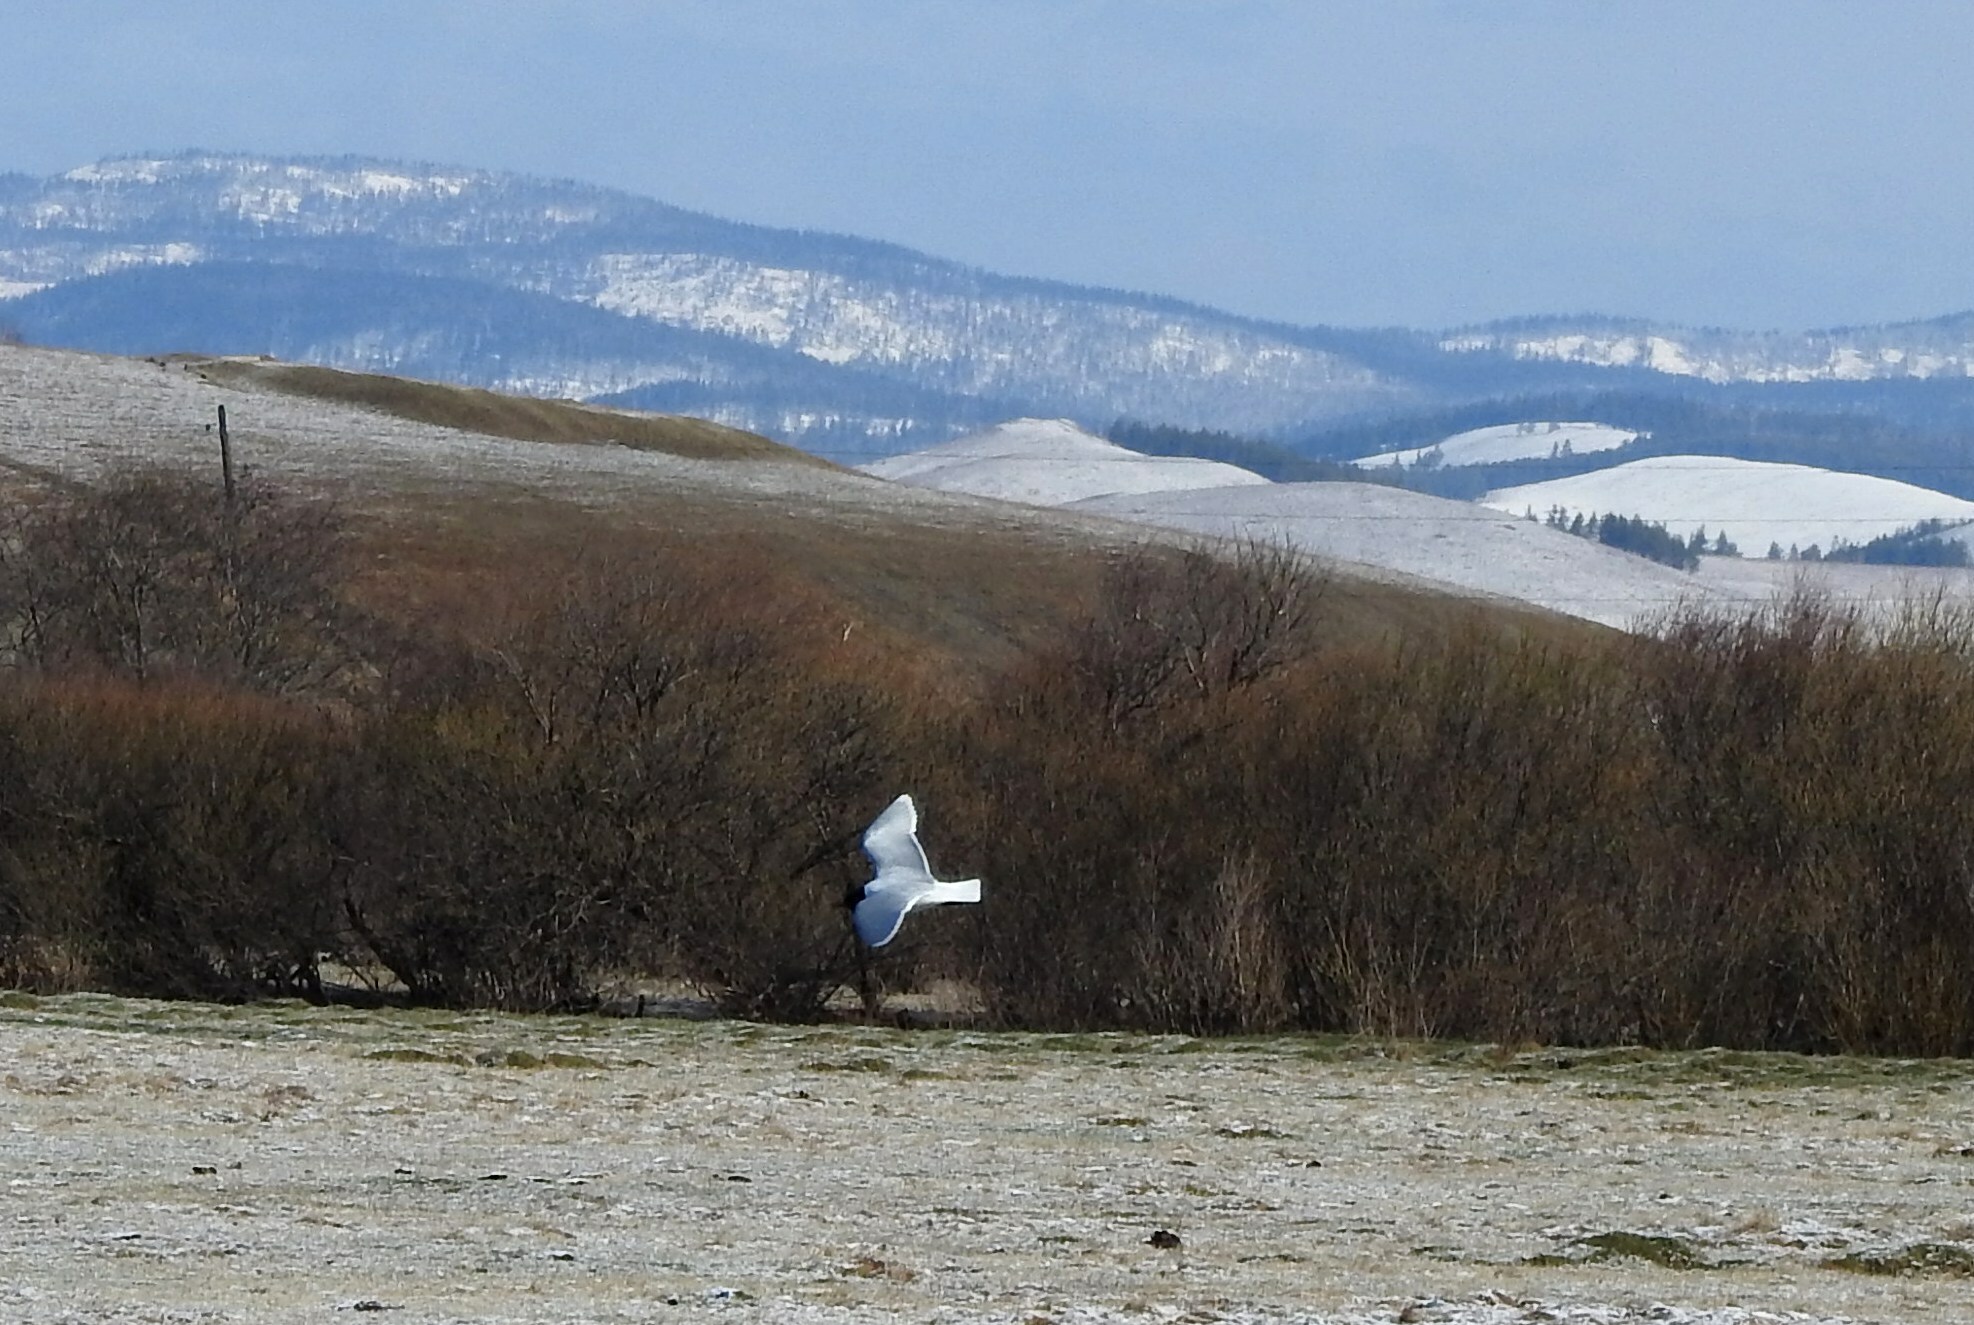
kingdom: Animalia
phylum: Chordata
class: Aves
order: Charadriiformes
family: Laridae
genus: Hydrocoloeus
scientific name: Hydrocoloeus minutus
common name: Little gull
